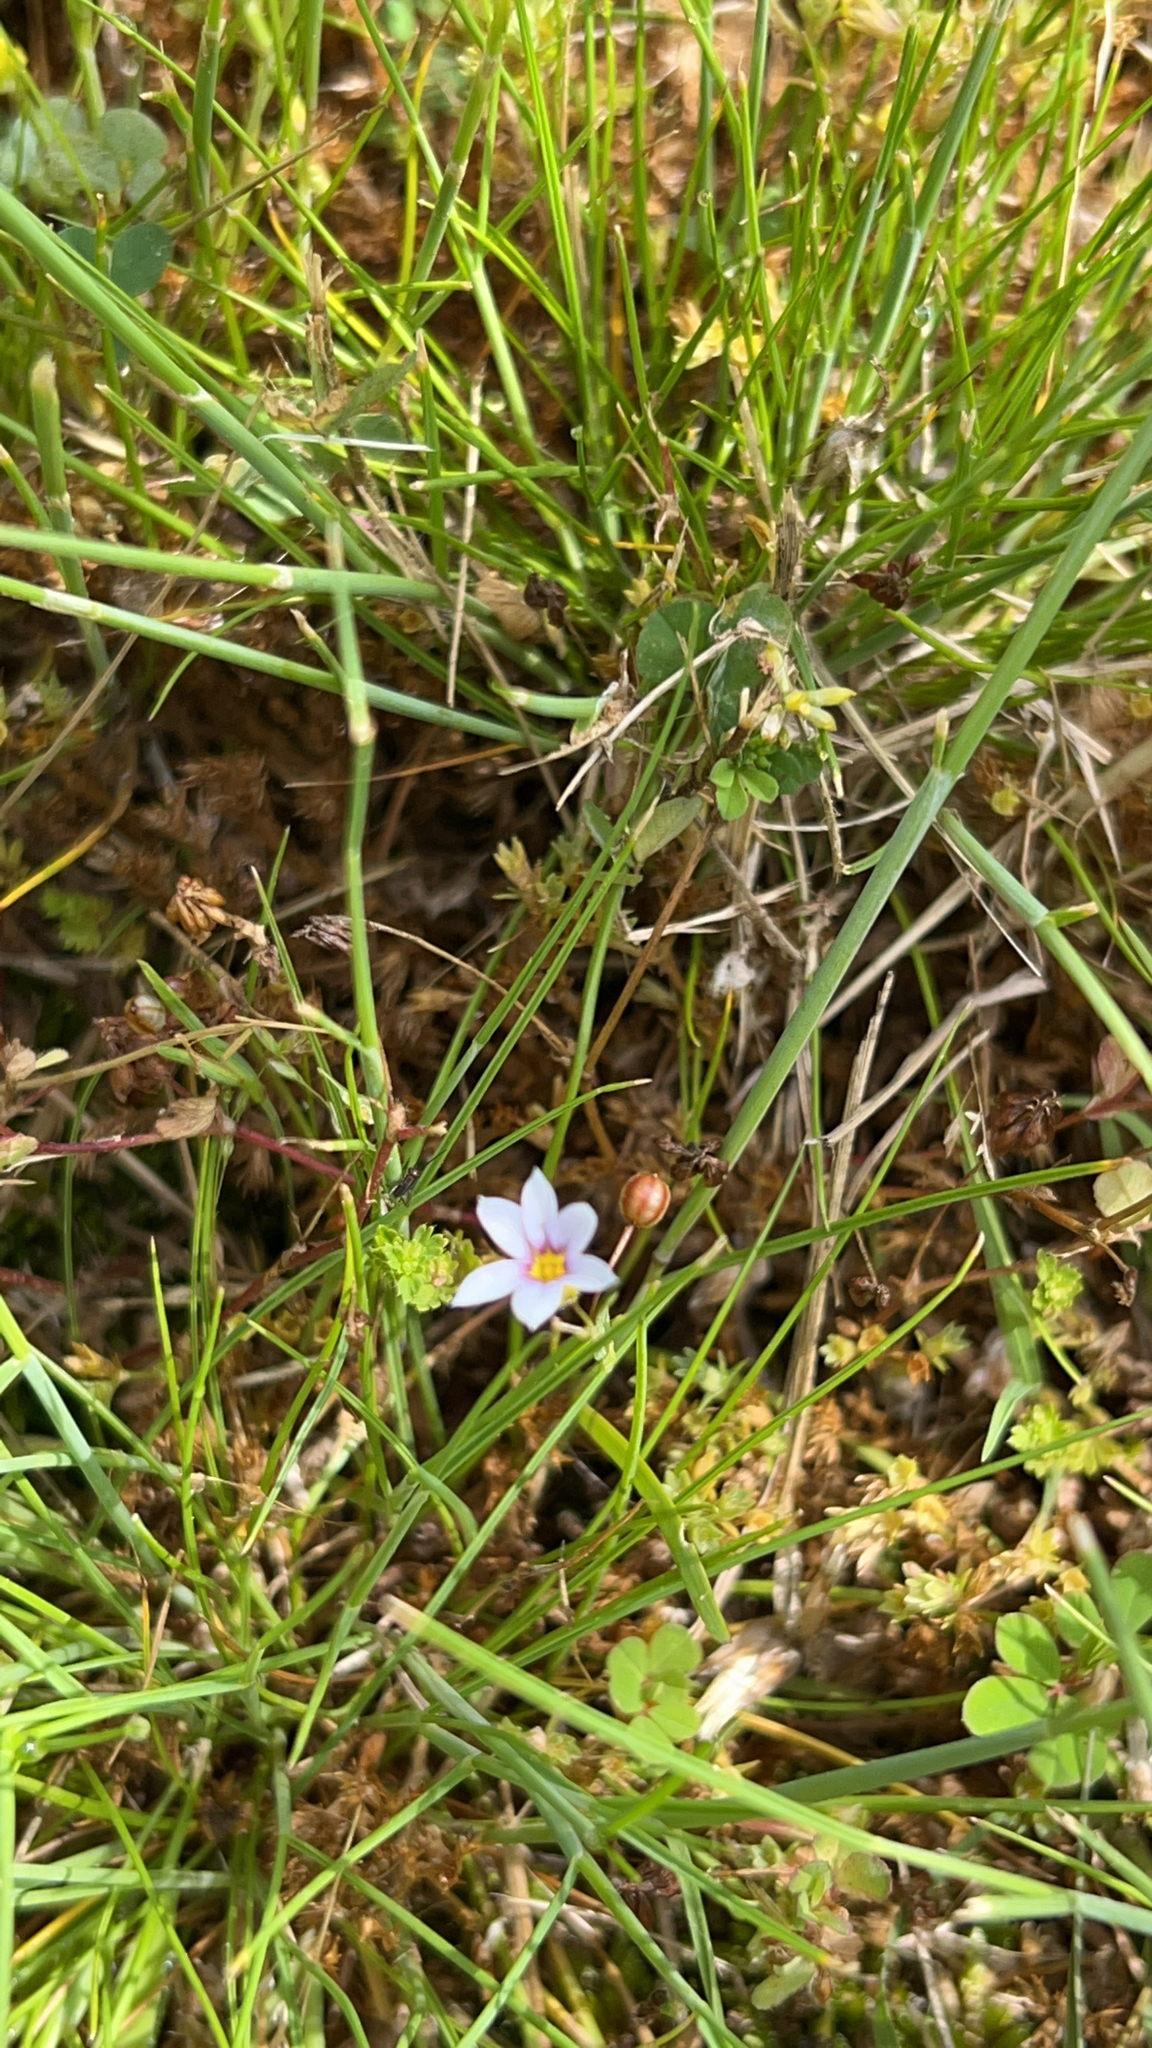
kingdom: Plantae
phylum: Tracheophyta
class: Liliopsida
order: Asparagales
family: Iridaceae
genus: Sisyrinchium
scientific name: Sisyrinchium micranthum
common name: Bermuda pigroot
